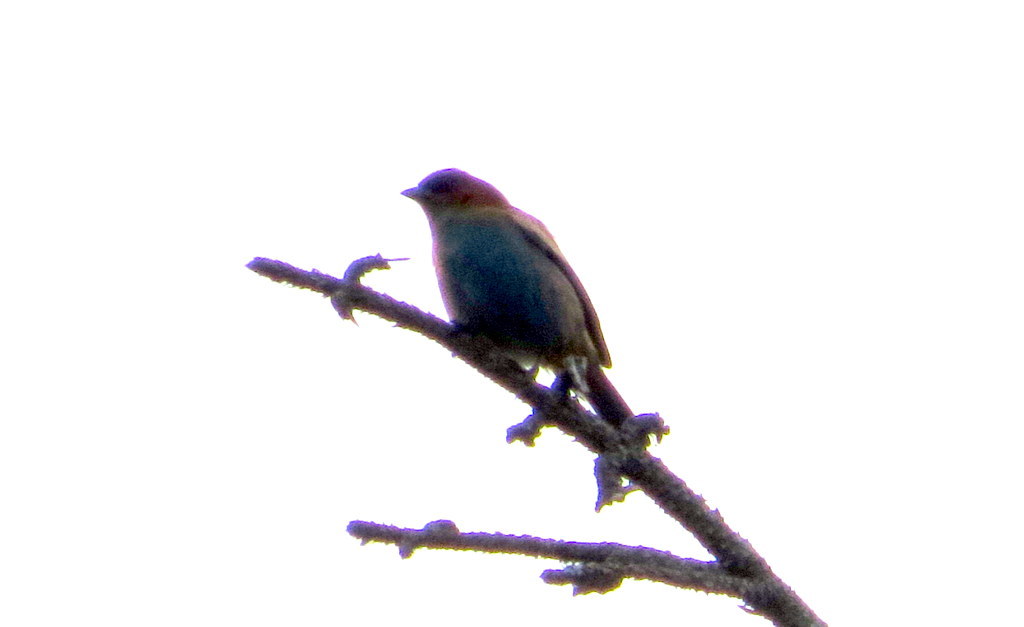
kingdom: Animalia
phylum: Chordata
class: Aves
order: Passeriformes
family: Thraupidae
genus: Stilpnia
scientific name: Stilpnia preciosa
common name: Chestnut-backed tanager
